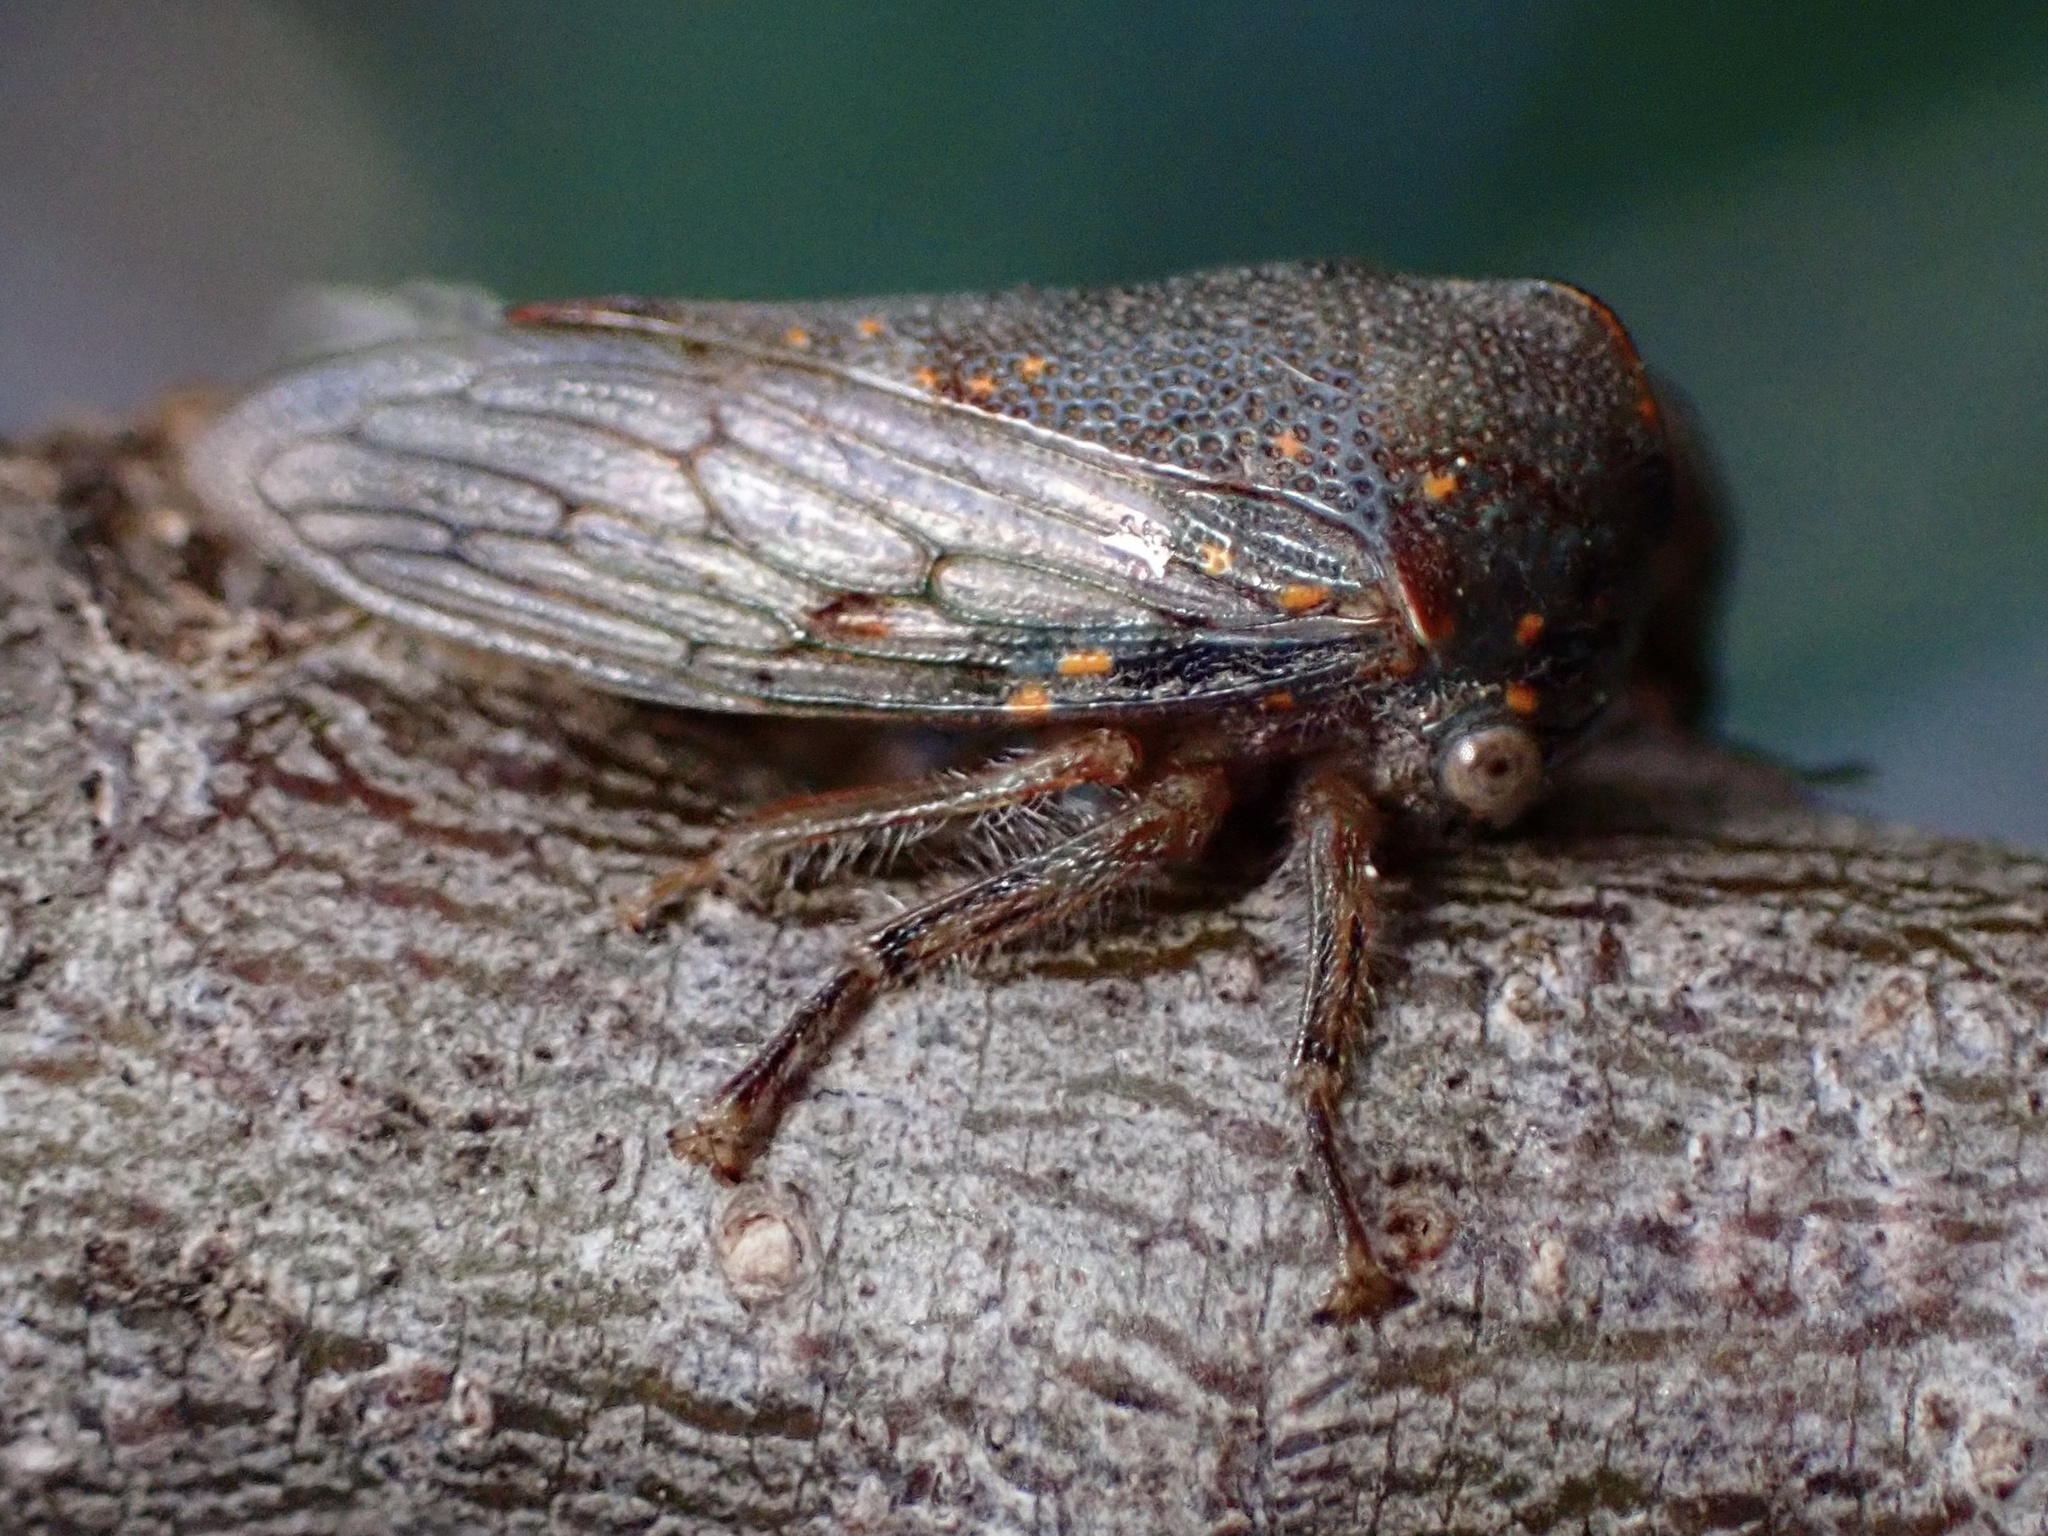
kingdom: Animalia
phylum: Arthropoda
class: Insecta
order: Hemiptera
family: Membracidae
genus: Platycotis
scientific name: Platycotis vittatus
